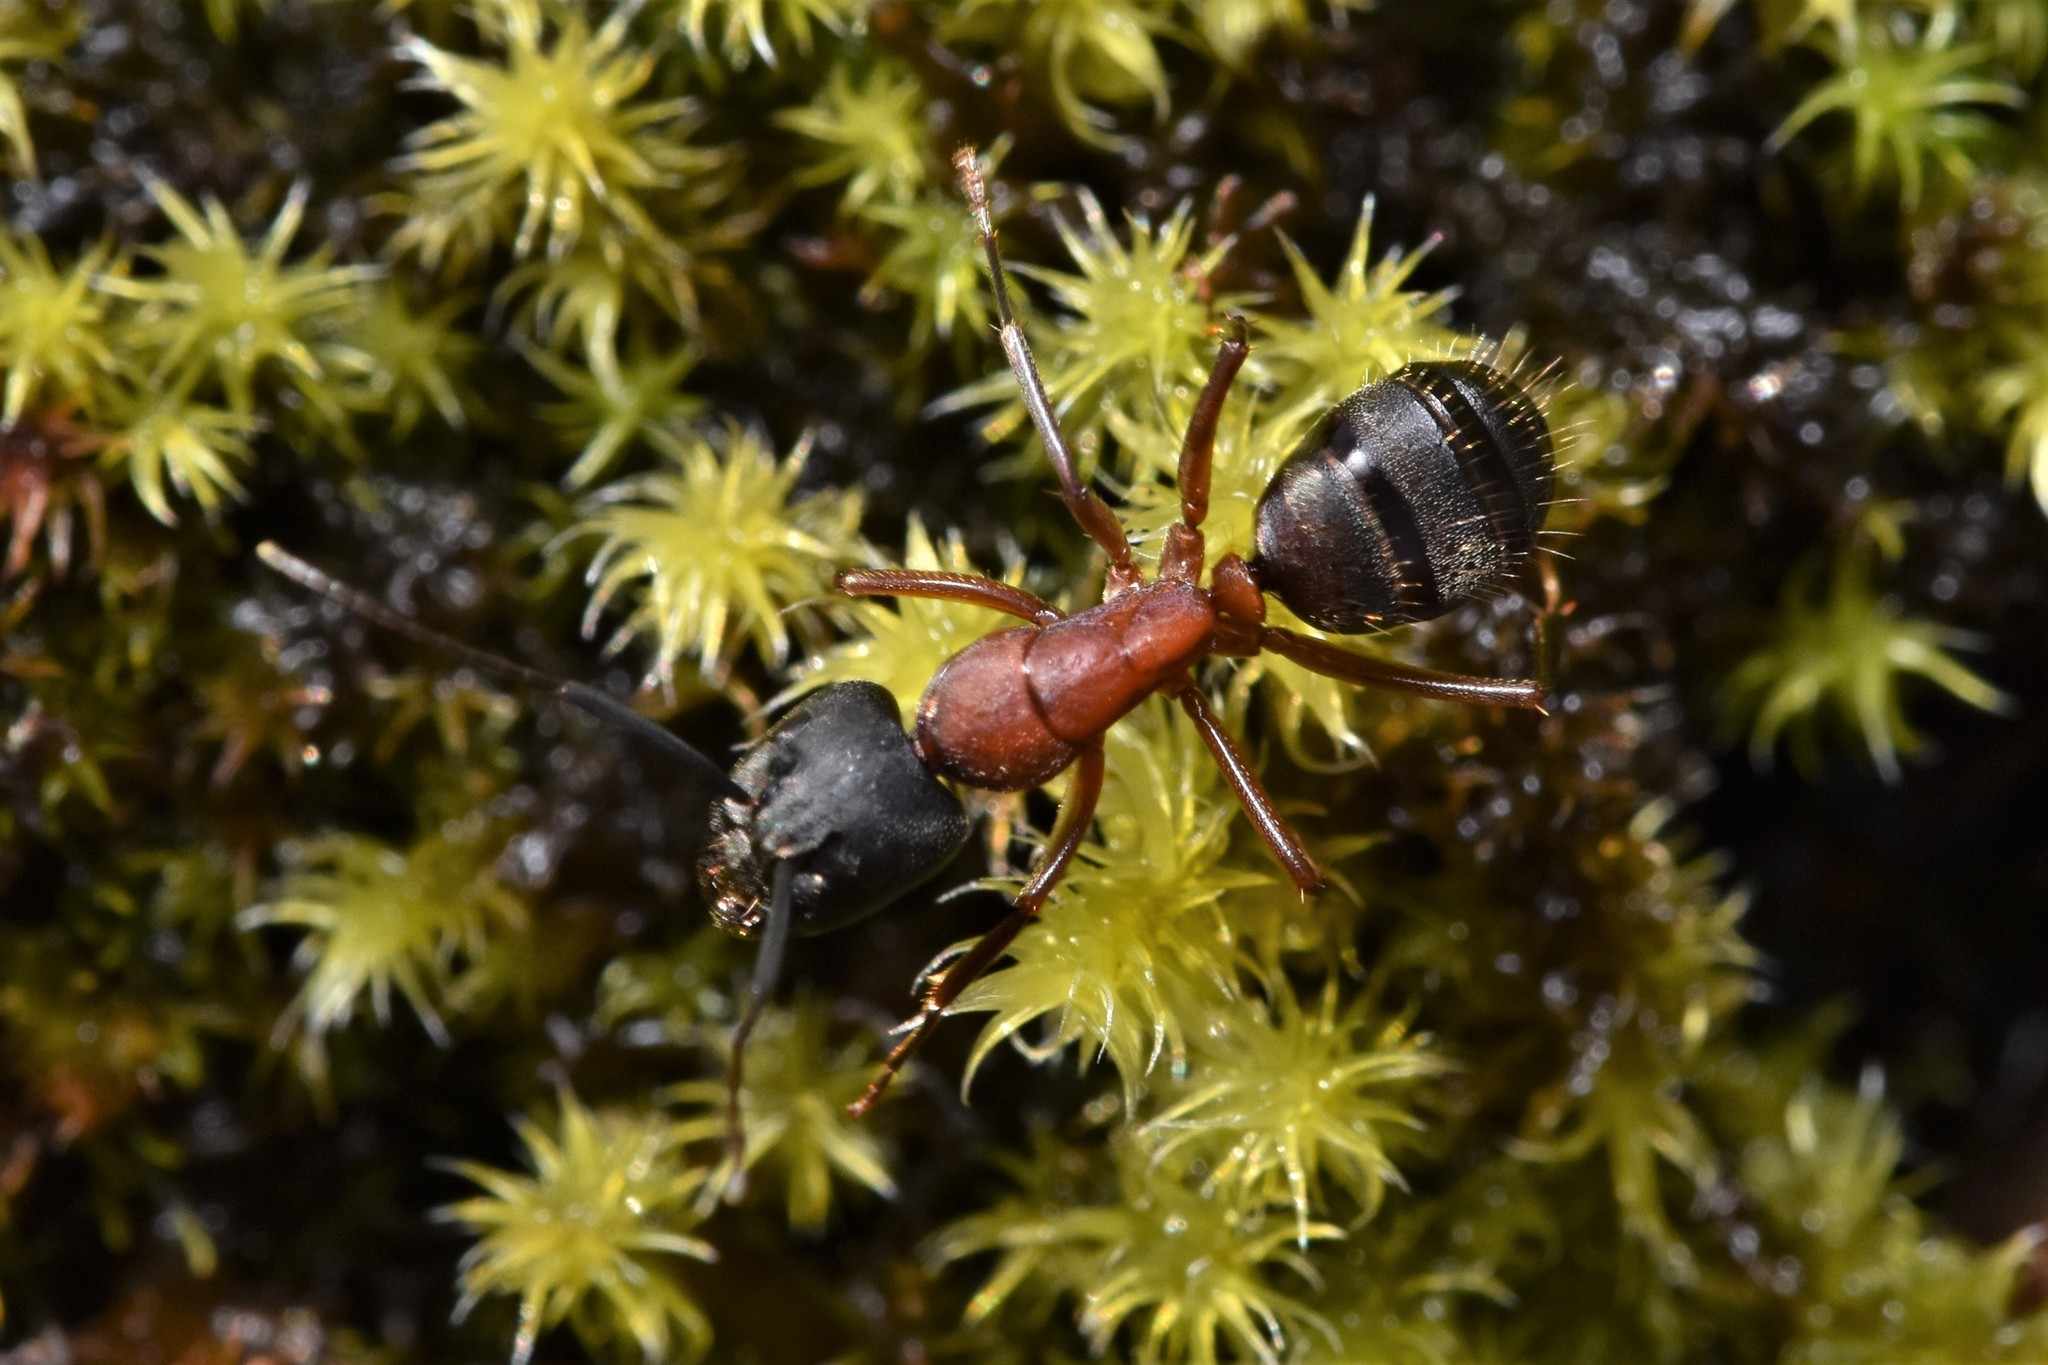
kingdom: Animalia
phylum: Arthropoda
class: Insecta
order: Hymenoptera
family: Formicidae
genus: Camponotus
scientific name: Camponotus vicinus
